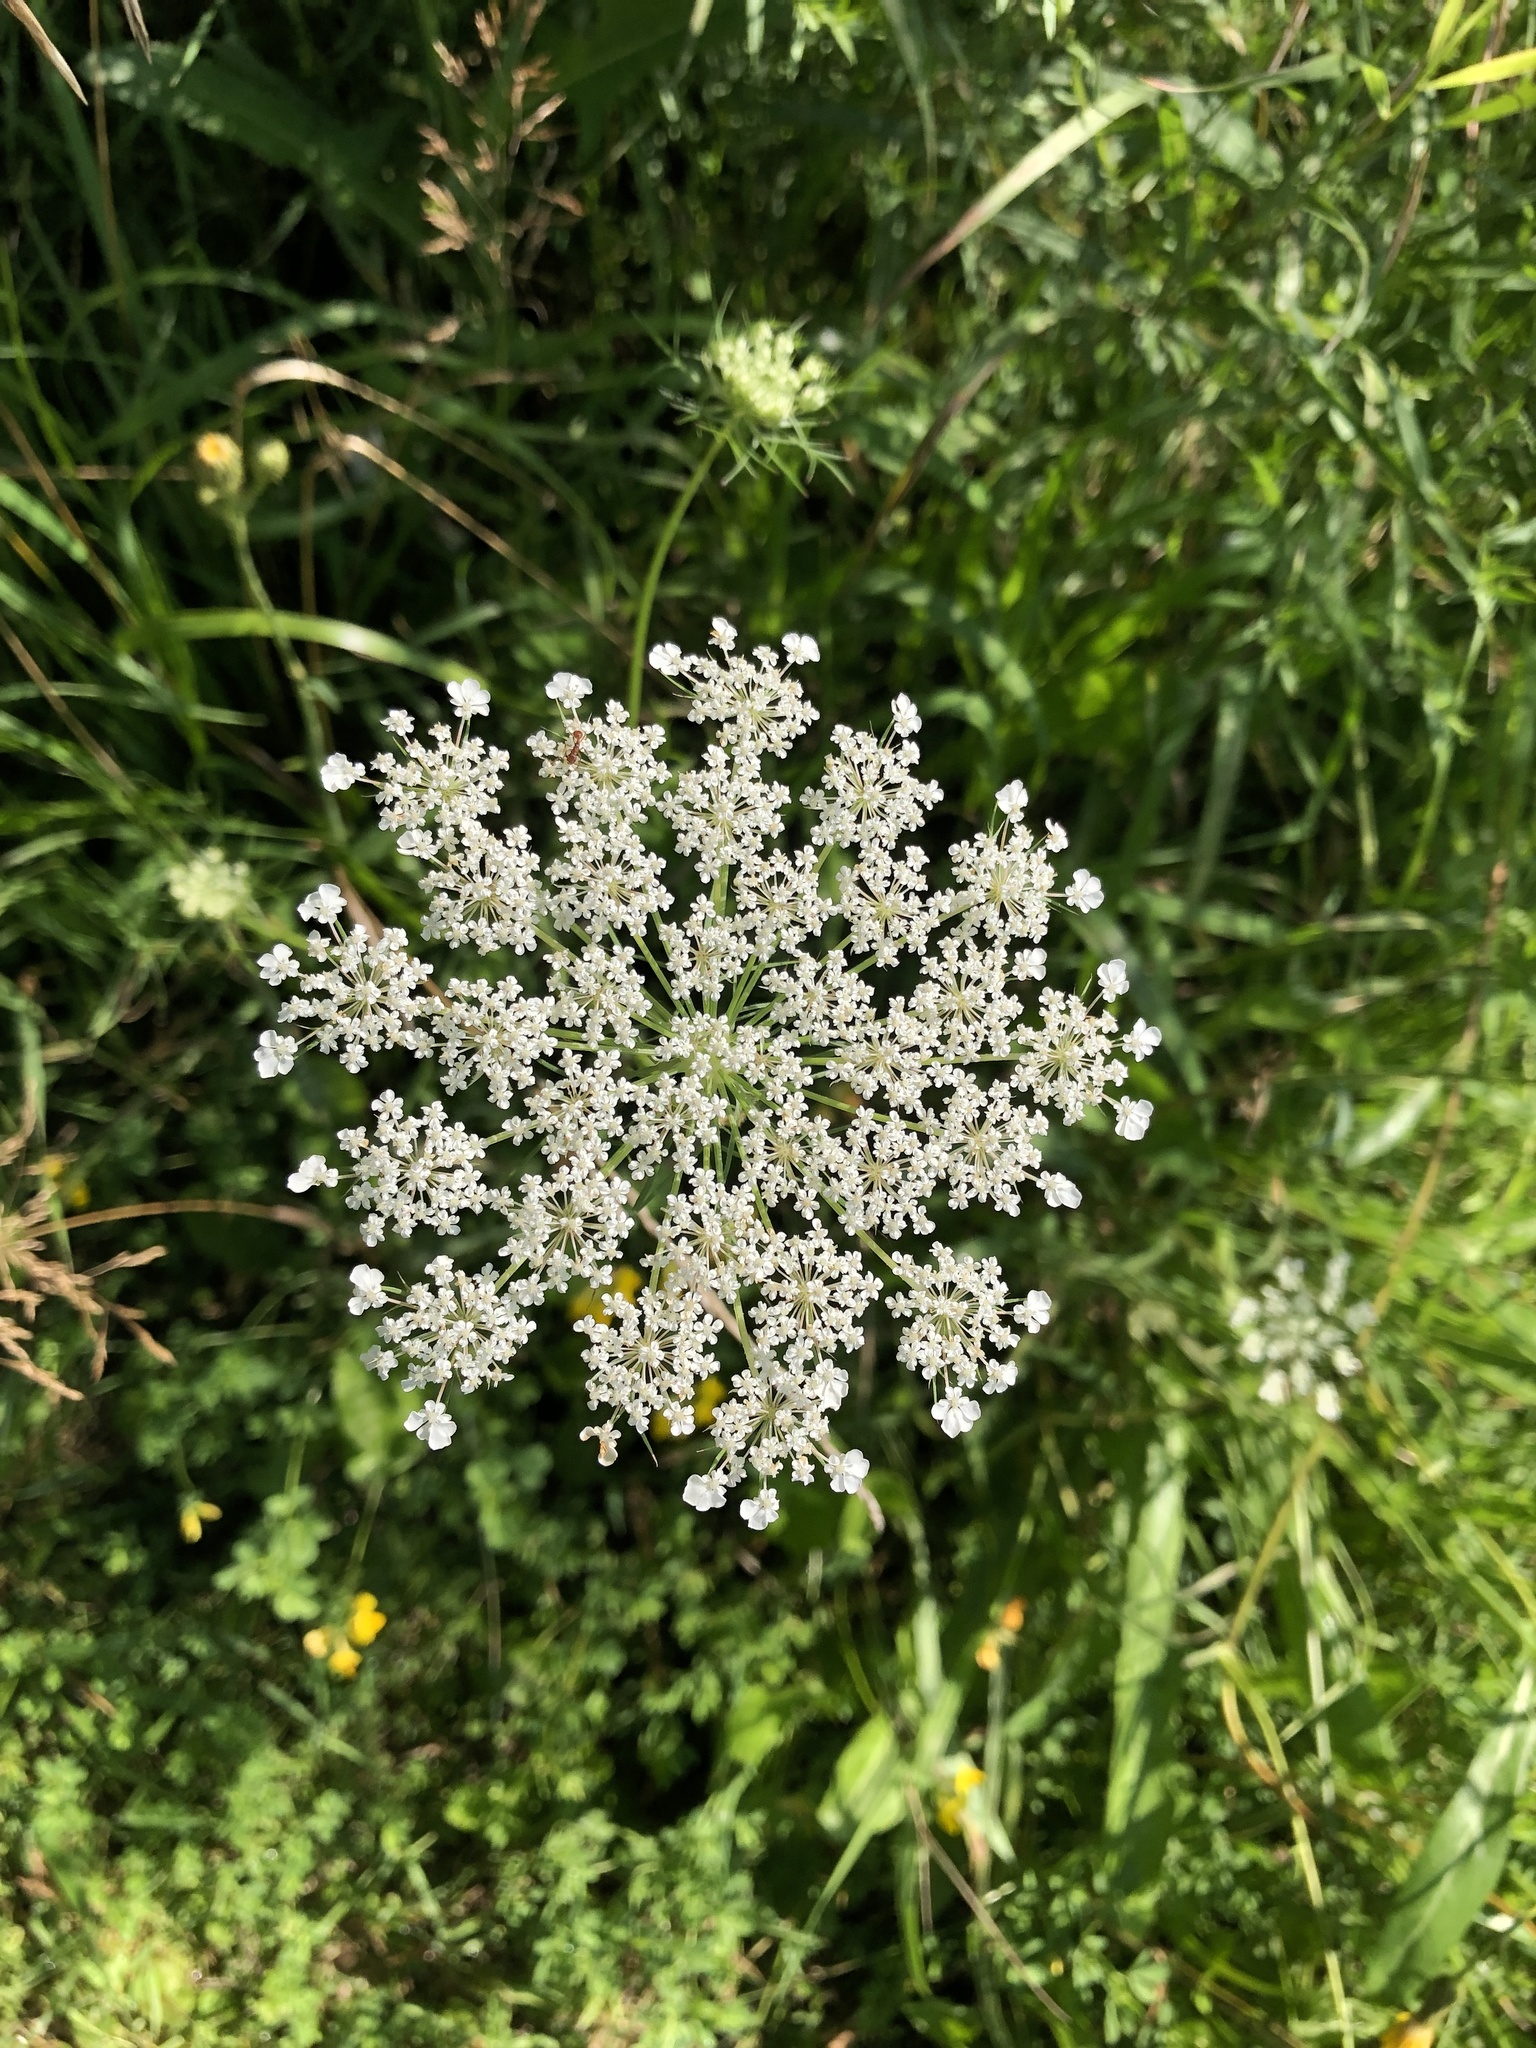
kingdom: Plantae
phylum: Tracheophyta
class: Magnoliopsida
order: Apiales
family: Apiaceae
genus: Daucus
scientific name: Daucus carota
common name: Wild carrot
